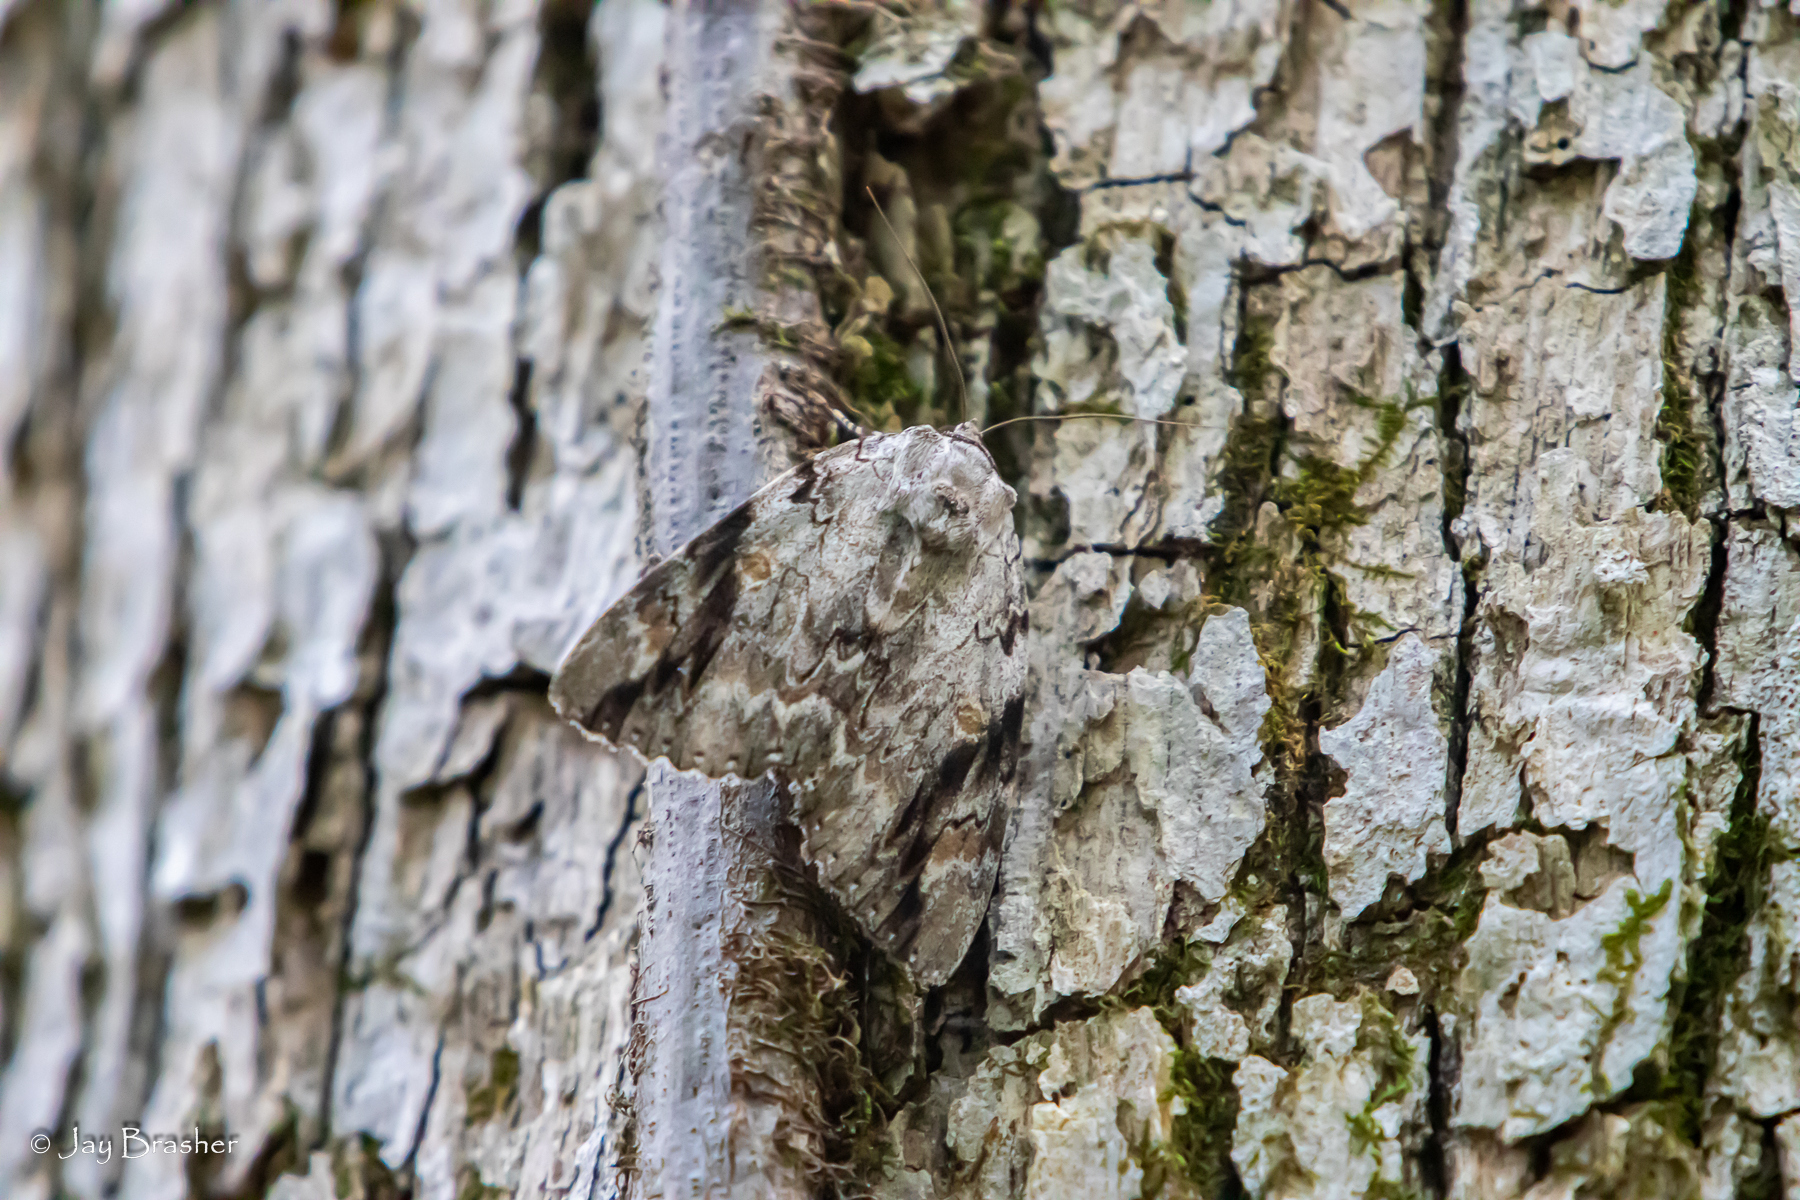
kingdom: Animalia
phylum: Arthropoda
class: Insecta
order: Lepidoptera
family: Erebidae
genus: Catocala
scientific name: Catocala maestosa
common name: Sad underwing
